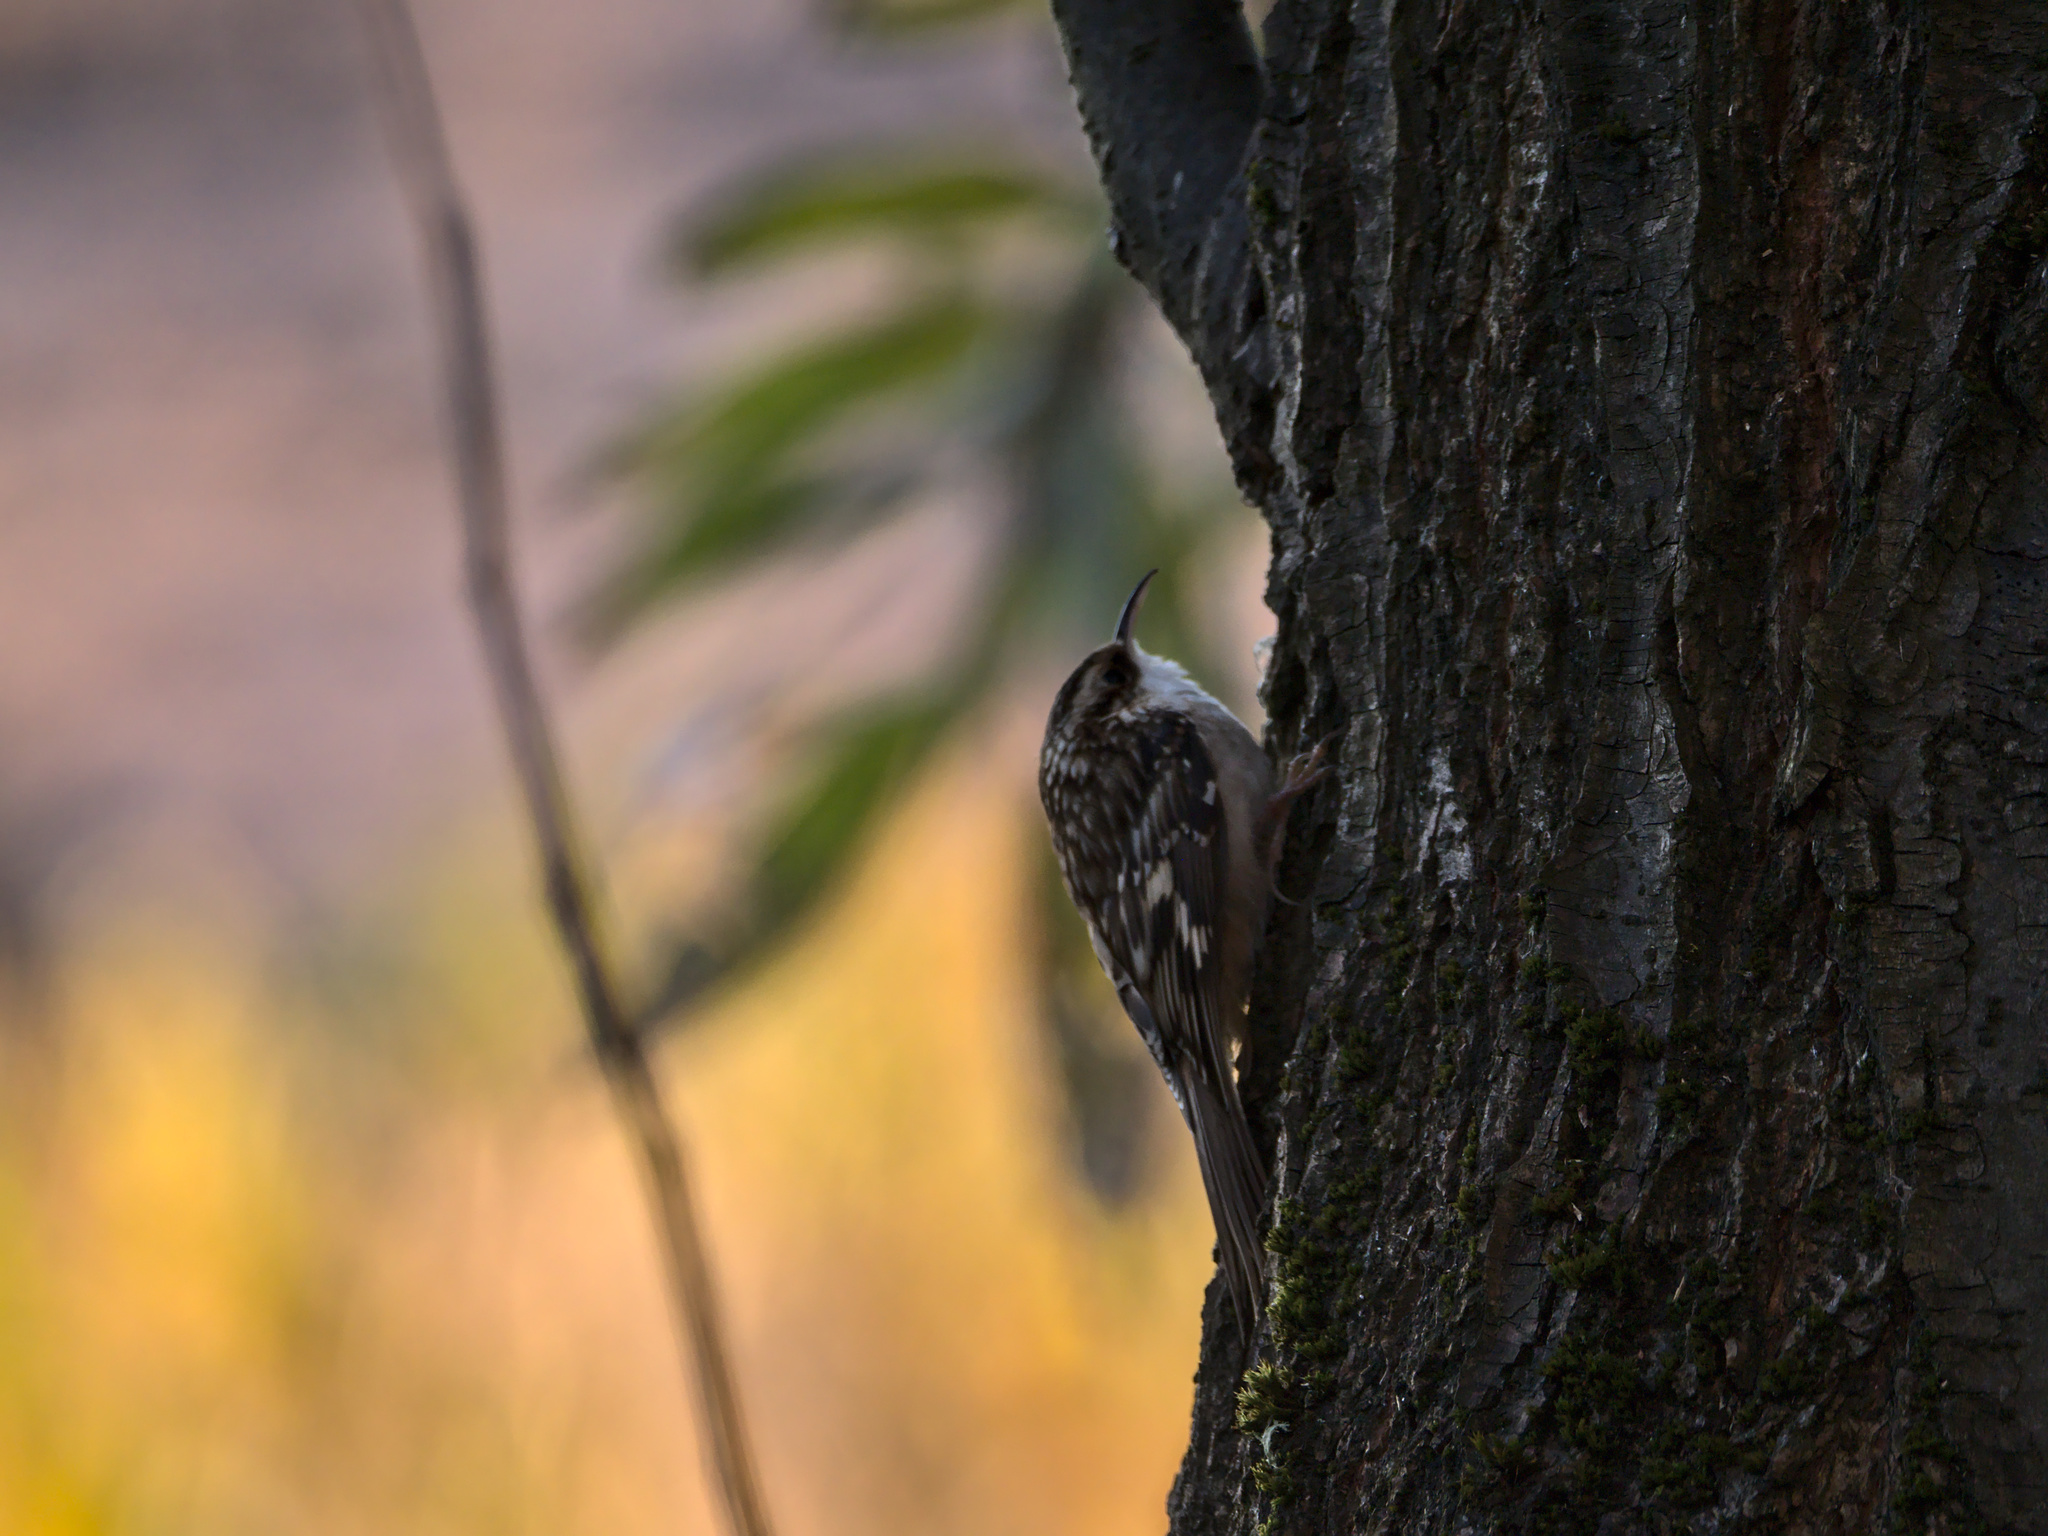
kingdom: Animalia
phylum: Chordata
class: Aves
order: Passeriformes
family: Certhiidae
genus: Certhia
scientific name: Certhia americana
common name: Brown creeper
